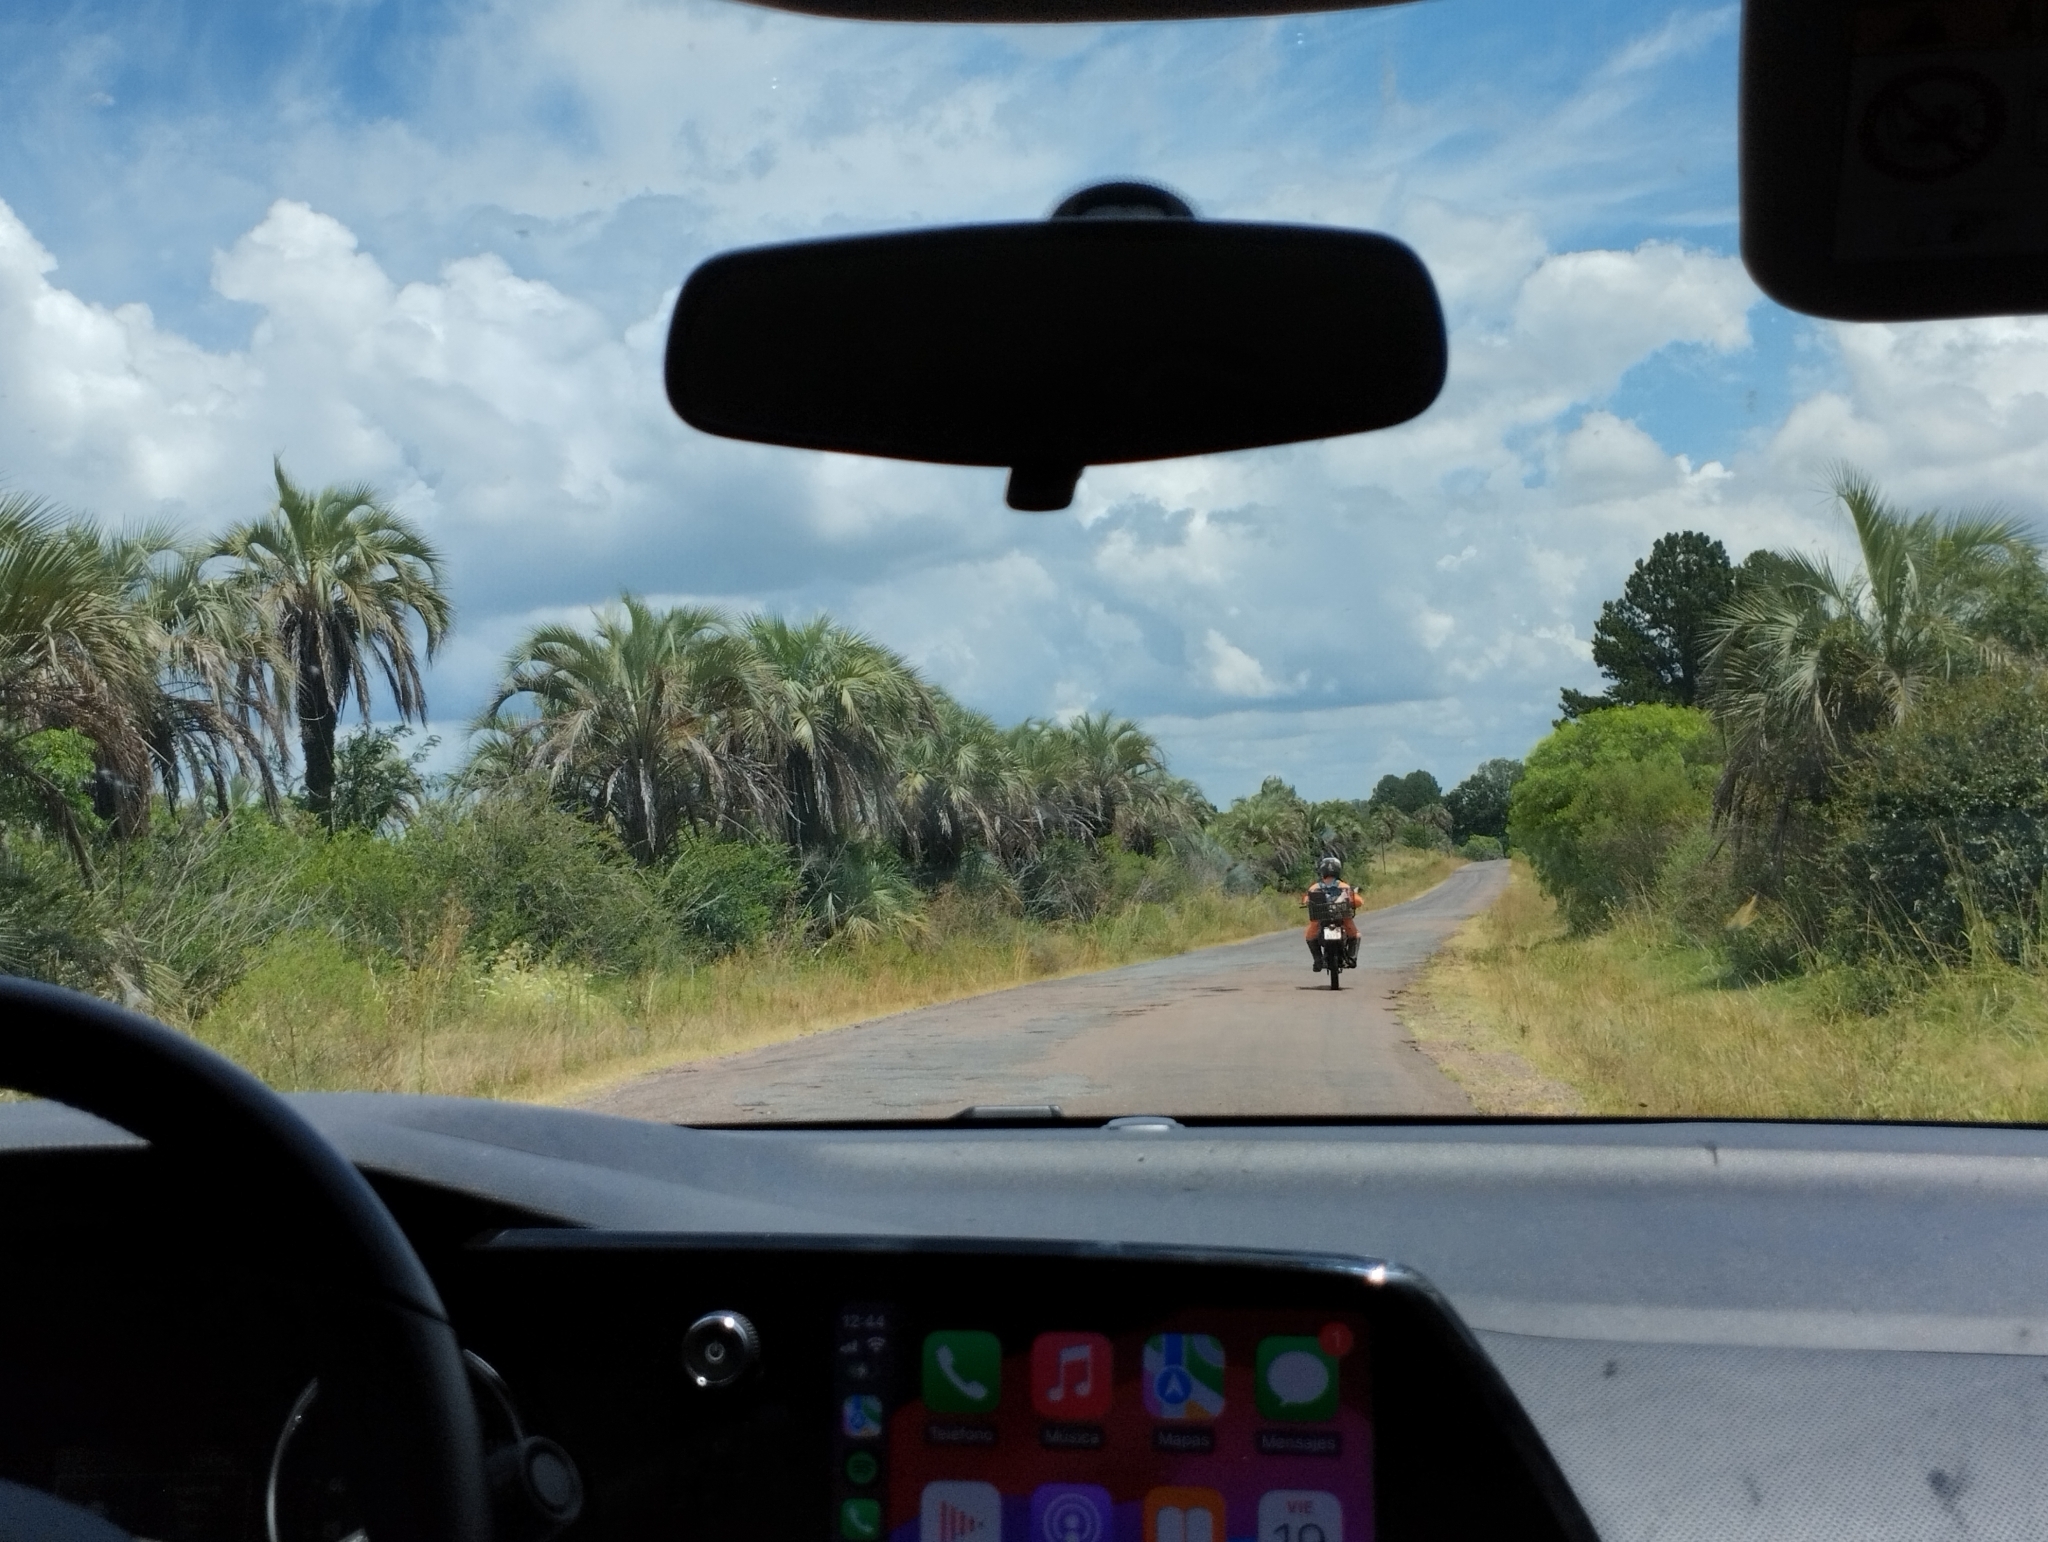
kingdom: Plantae
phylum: Tracheophyta
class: Liliopsida
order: Arecales
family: Arecaceae
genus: Butia
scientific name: Butia yatay
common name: Yatay palm
